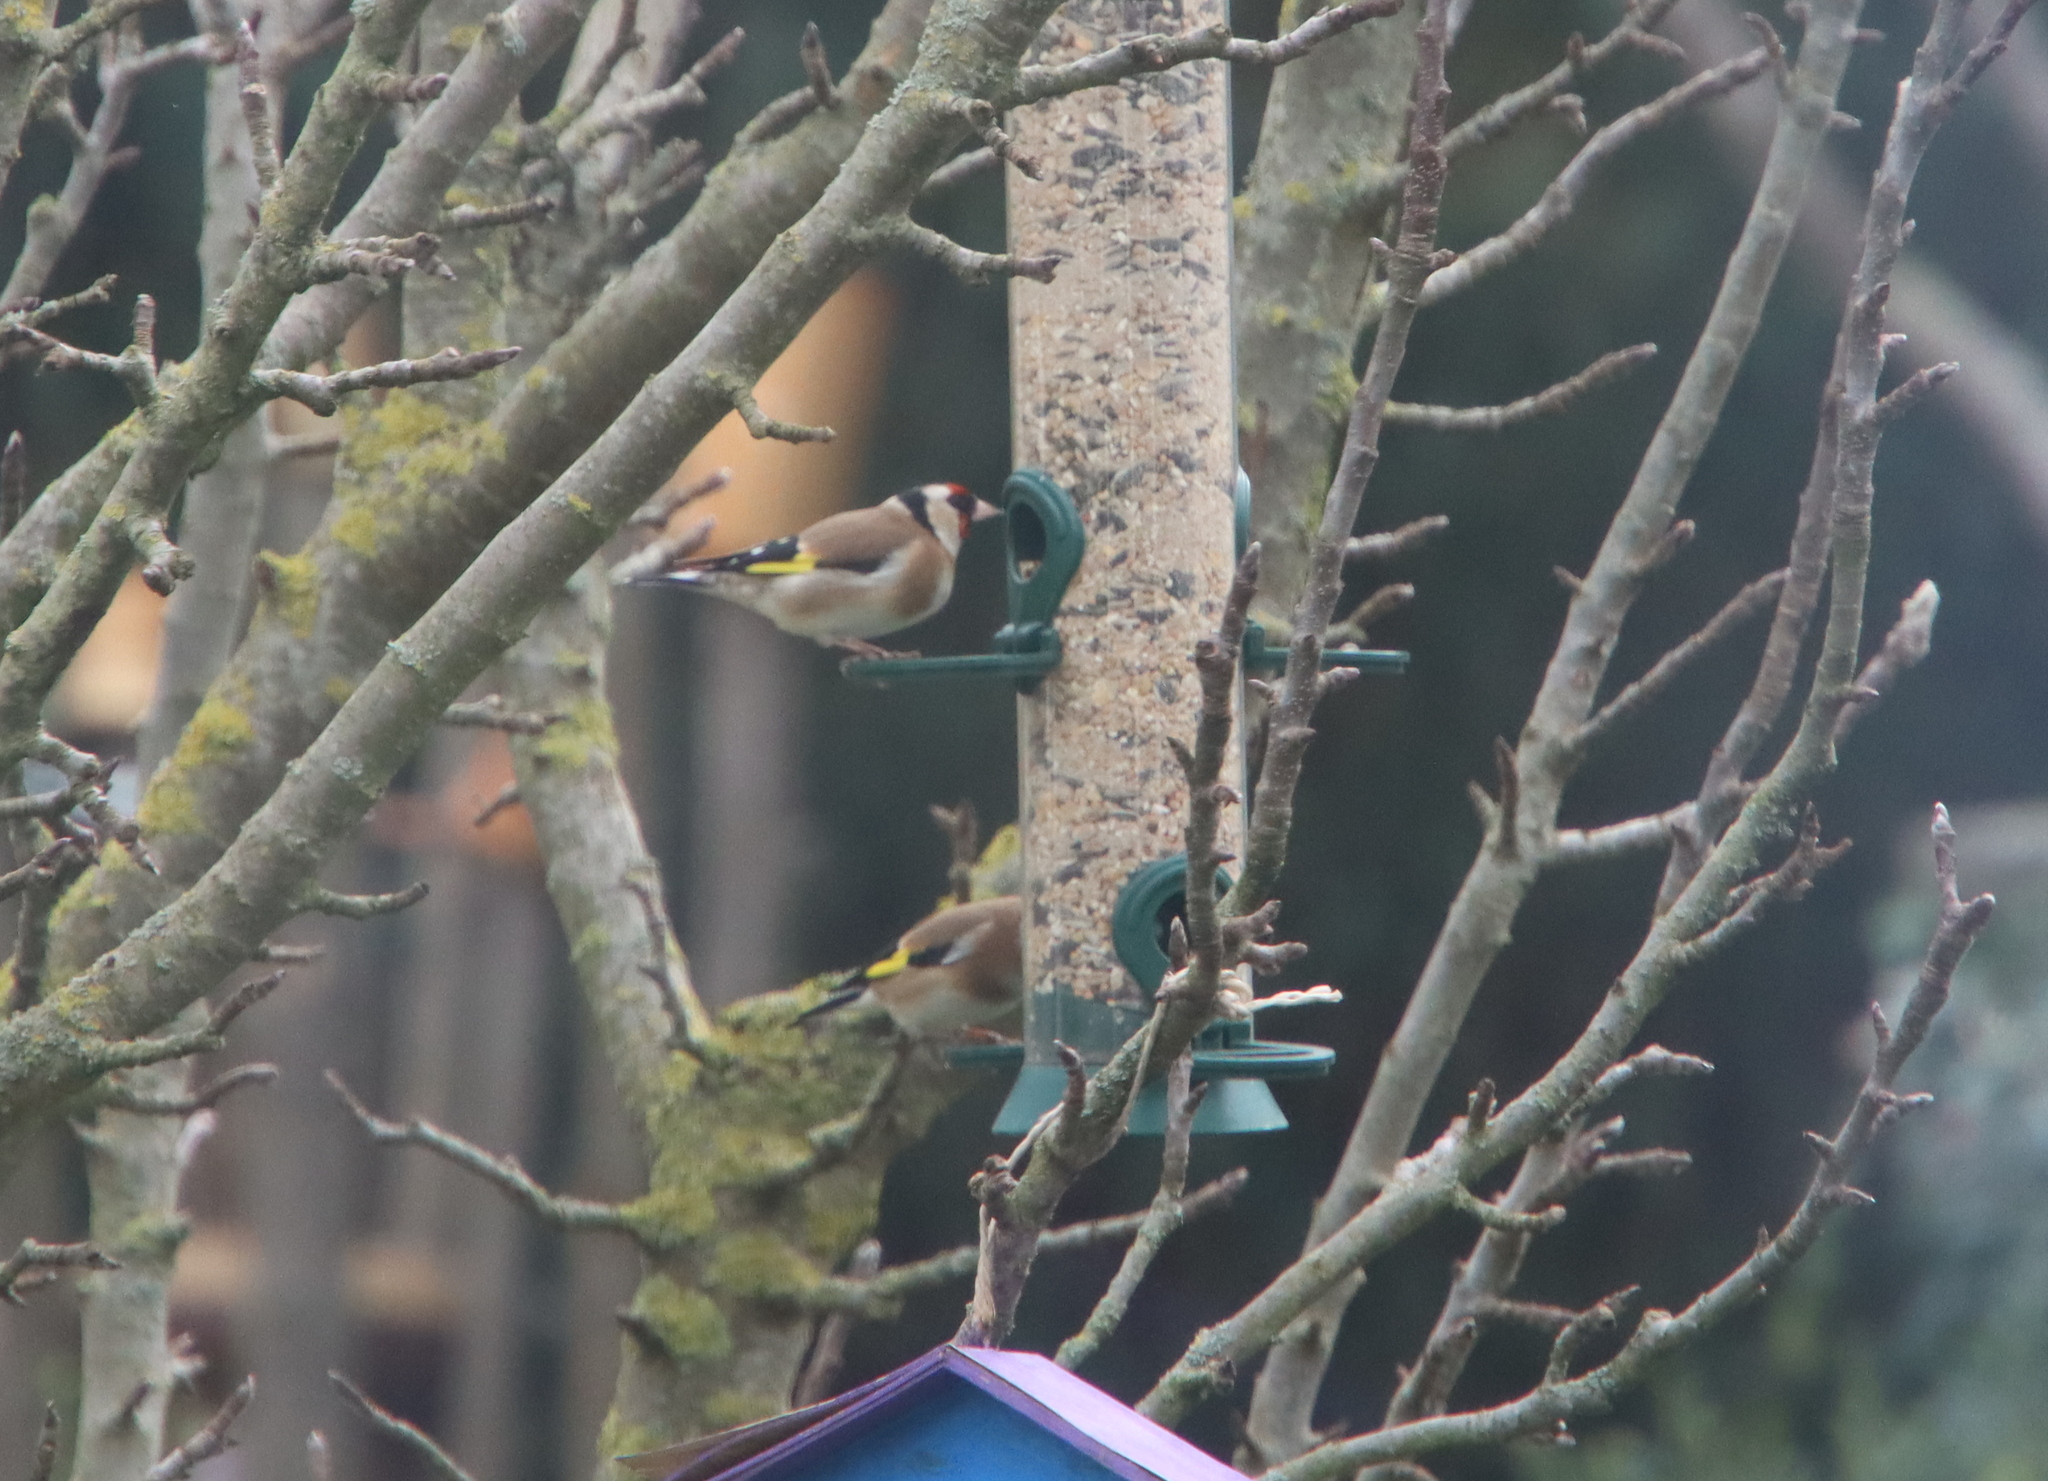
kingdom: Animalia
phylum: Chordata
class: Aves
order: Passeriformes
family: Fringillidae
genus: Carduelis
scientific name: Carduelis carduelis
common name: European goldfinch
